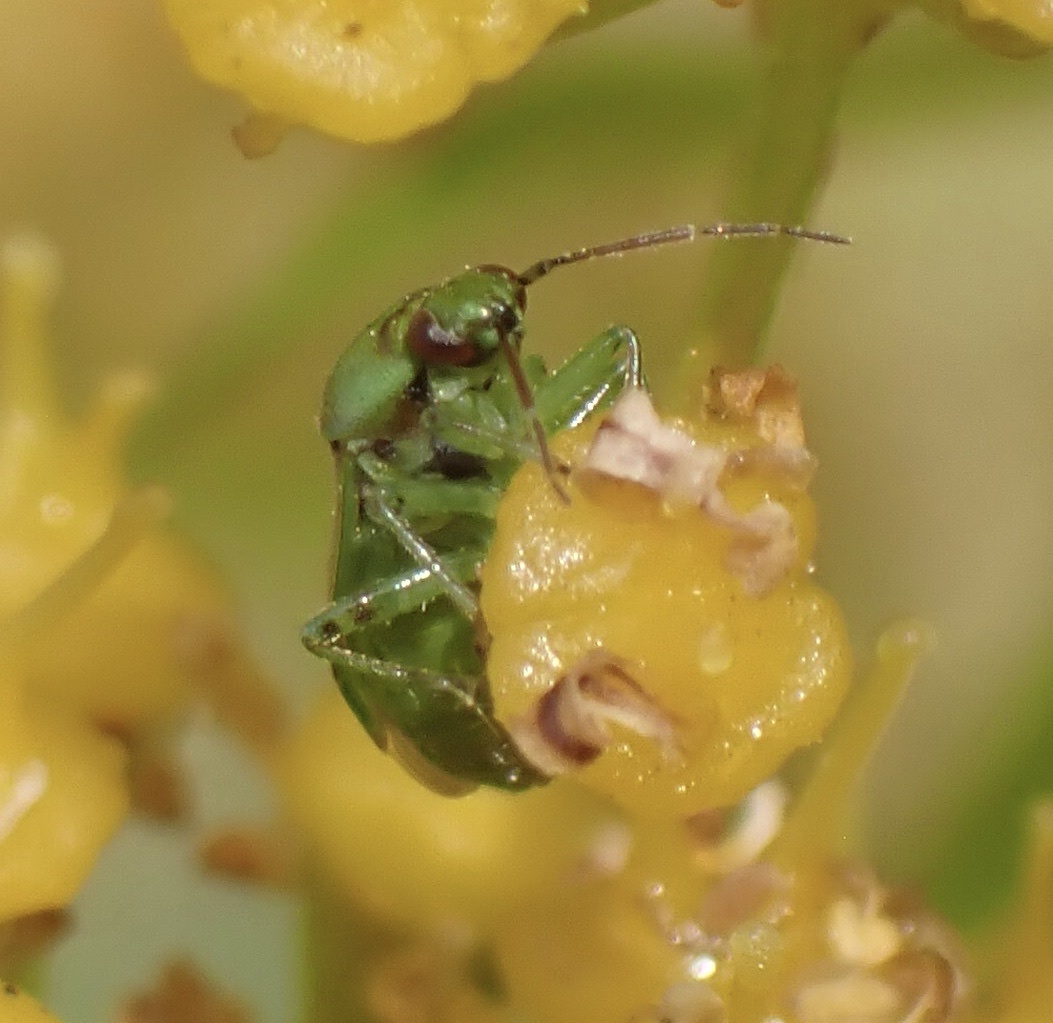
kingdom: Animalia
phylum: Arthropoda
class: Insecta
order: Hemiptera
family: Miridae
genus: Orthops
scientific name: Orthops campestris
